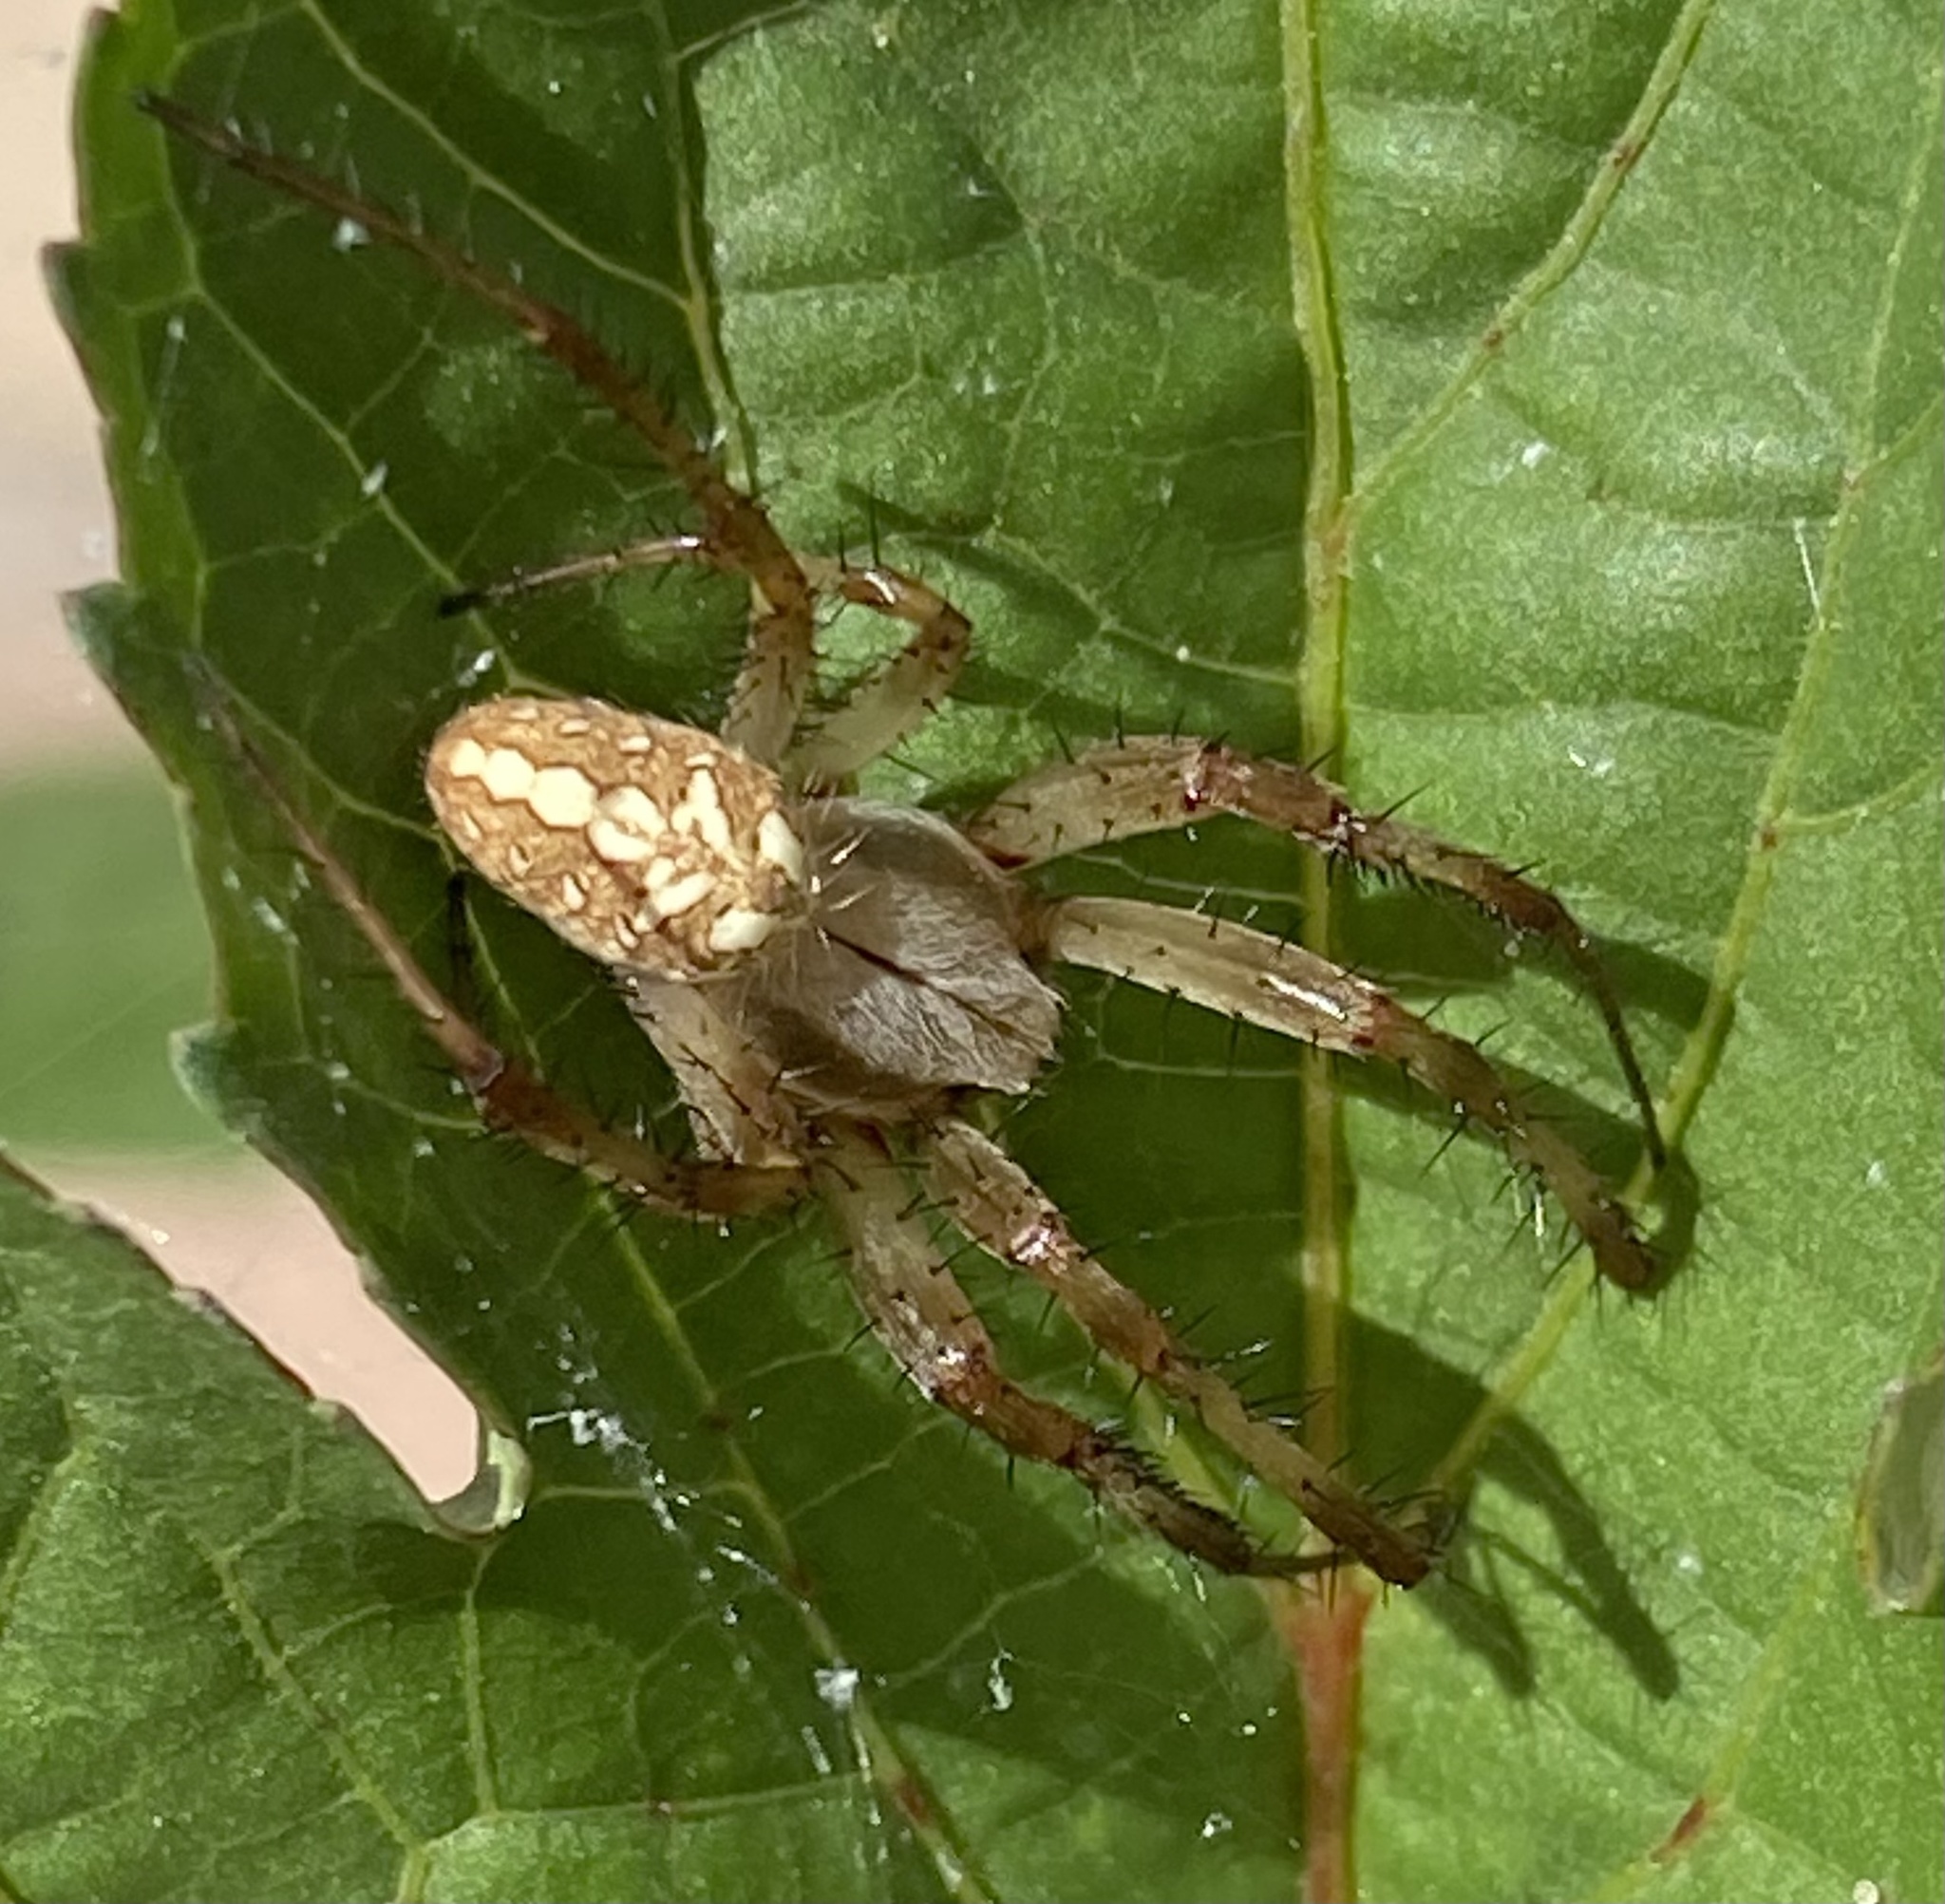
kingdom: Animalia
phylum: Arthropoda
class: Arachnida
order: Araneae
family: Araneidae
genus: Neoscona
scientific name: Neoscona oaxacensis
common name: Orb weavers
